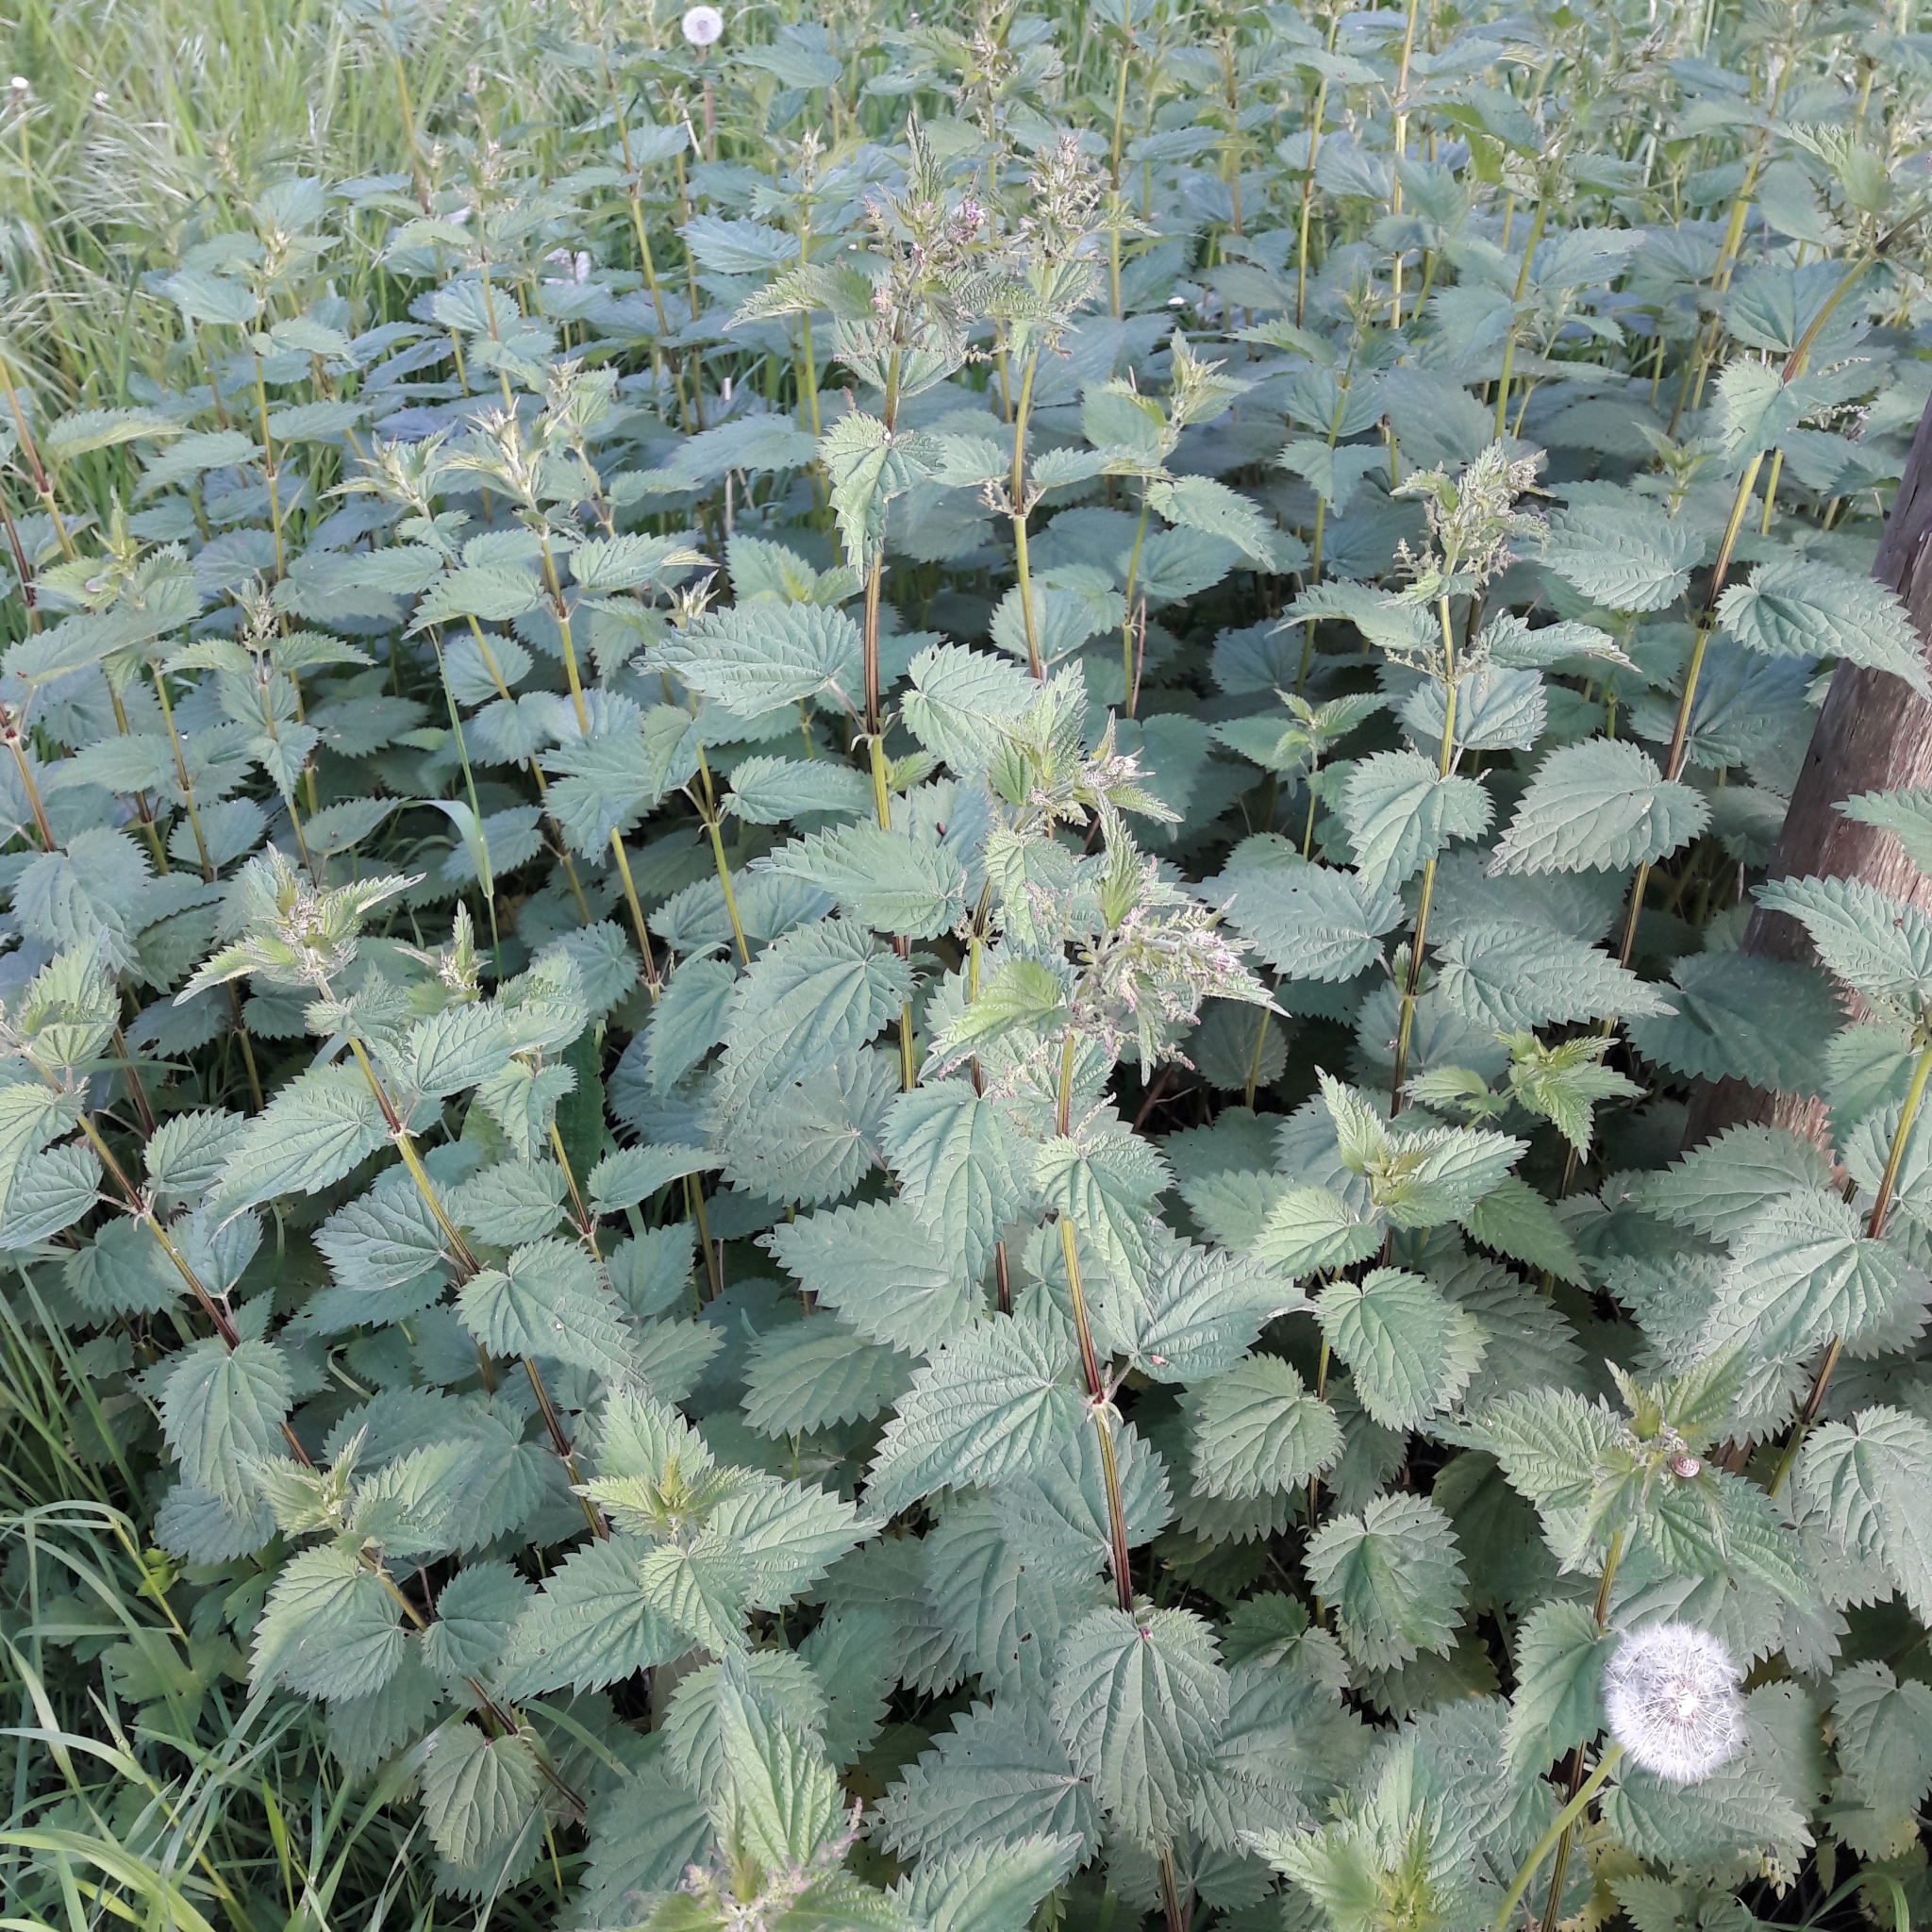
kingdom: Plantae
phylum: Tracheophyta
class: Magnoliopsida
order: Rosales
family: Urticaceae
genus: Urtica
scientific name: Urtica dioica
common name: Common nettle
